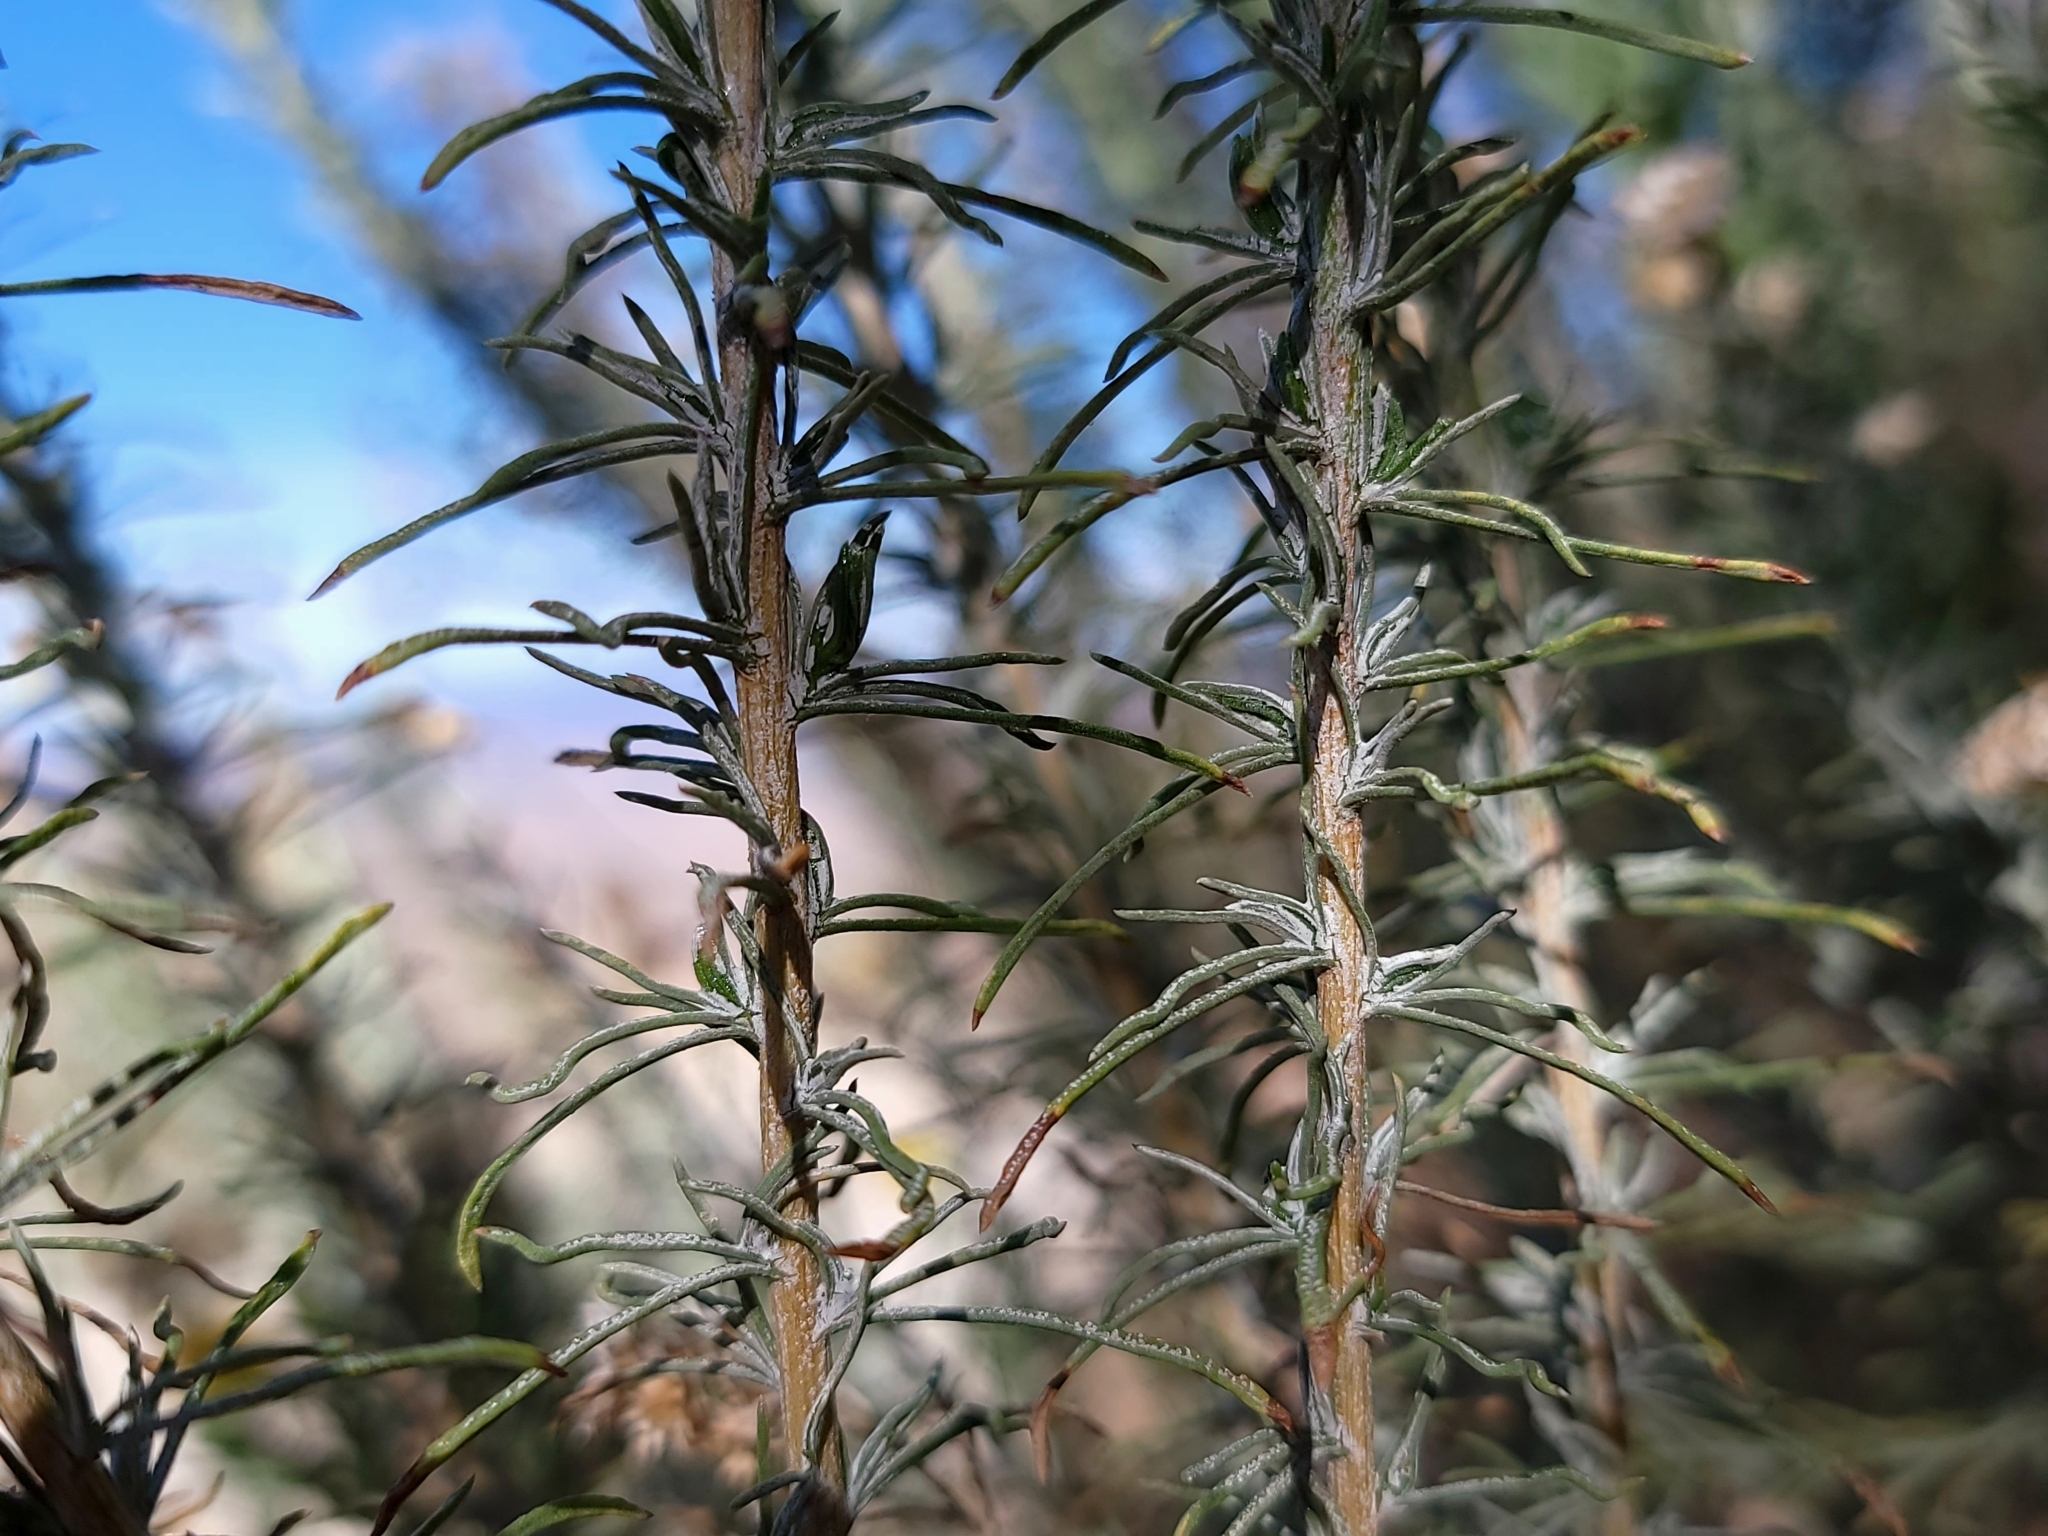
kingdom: Plantae
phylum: Tracheophyta
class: Magnoliopsida
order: Asterales
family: Asteraceae
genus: Ericameria
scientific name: Ericameria pinifolia
